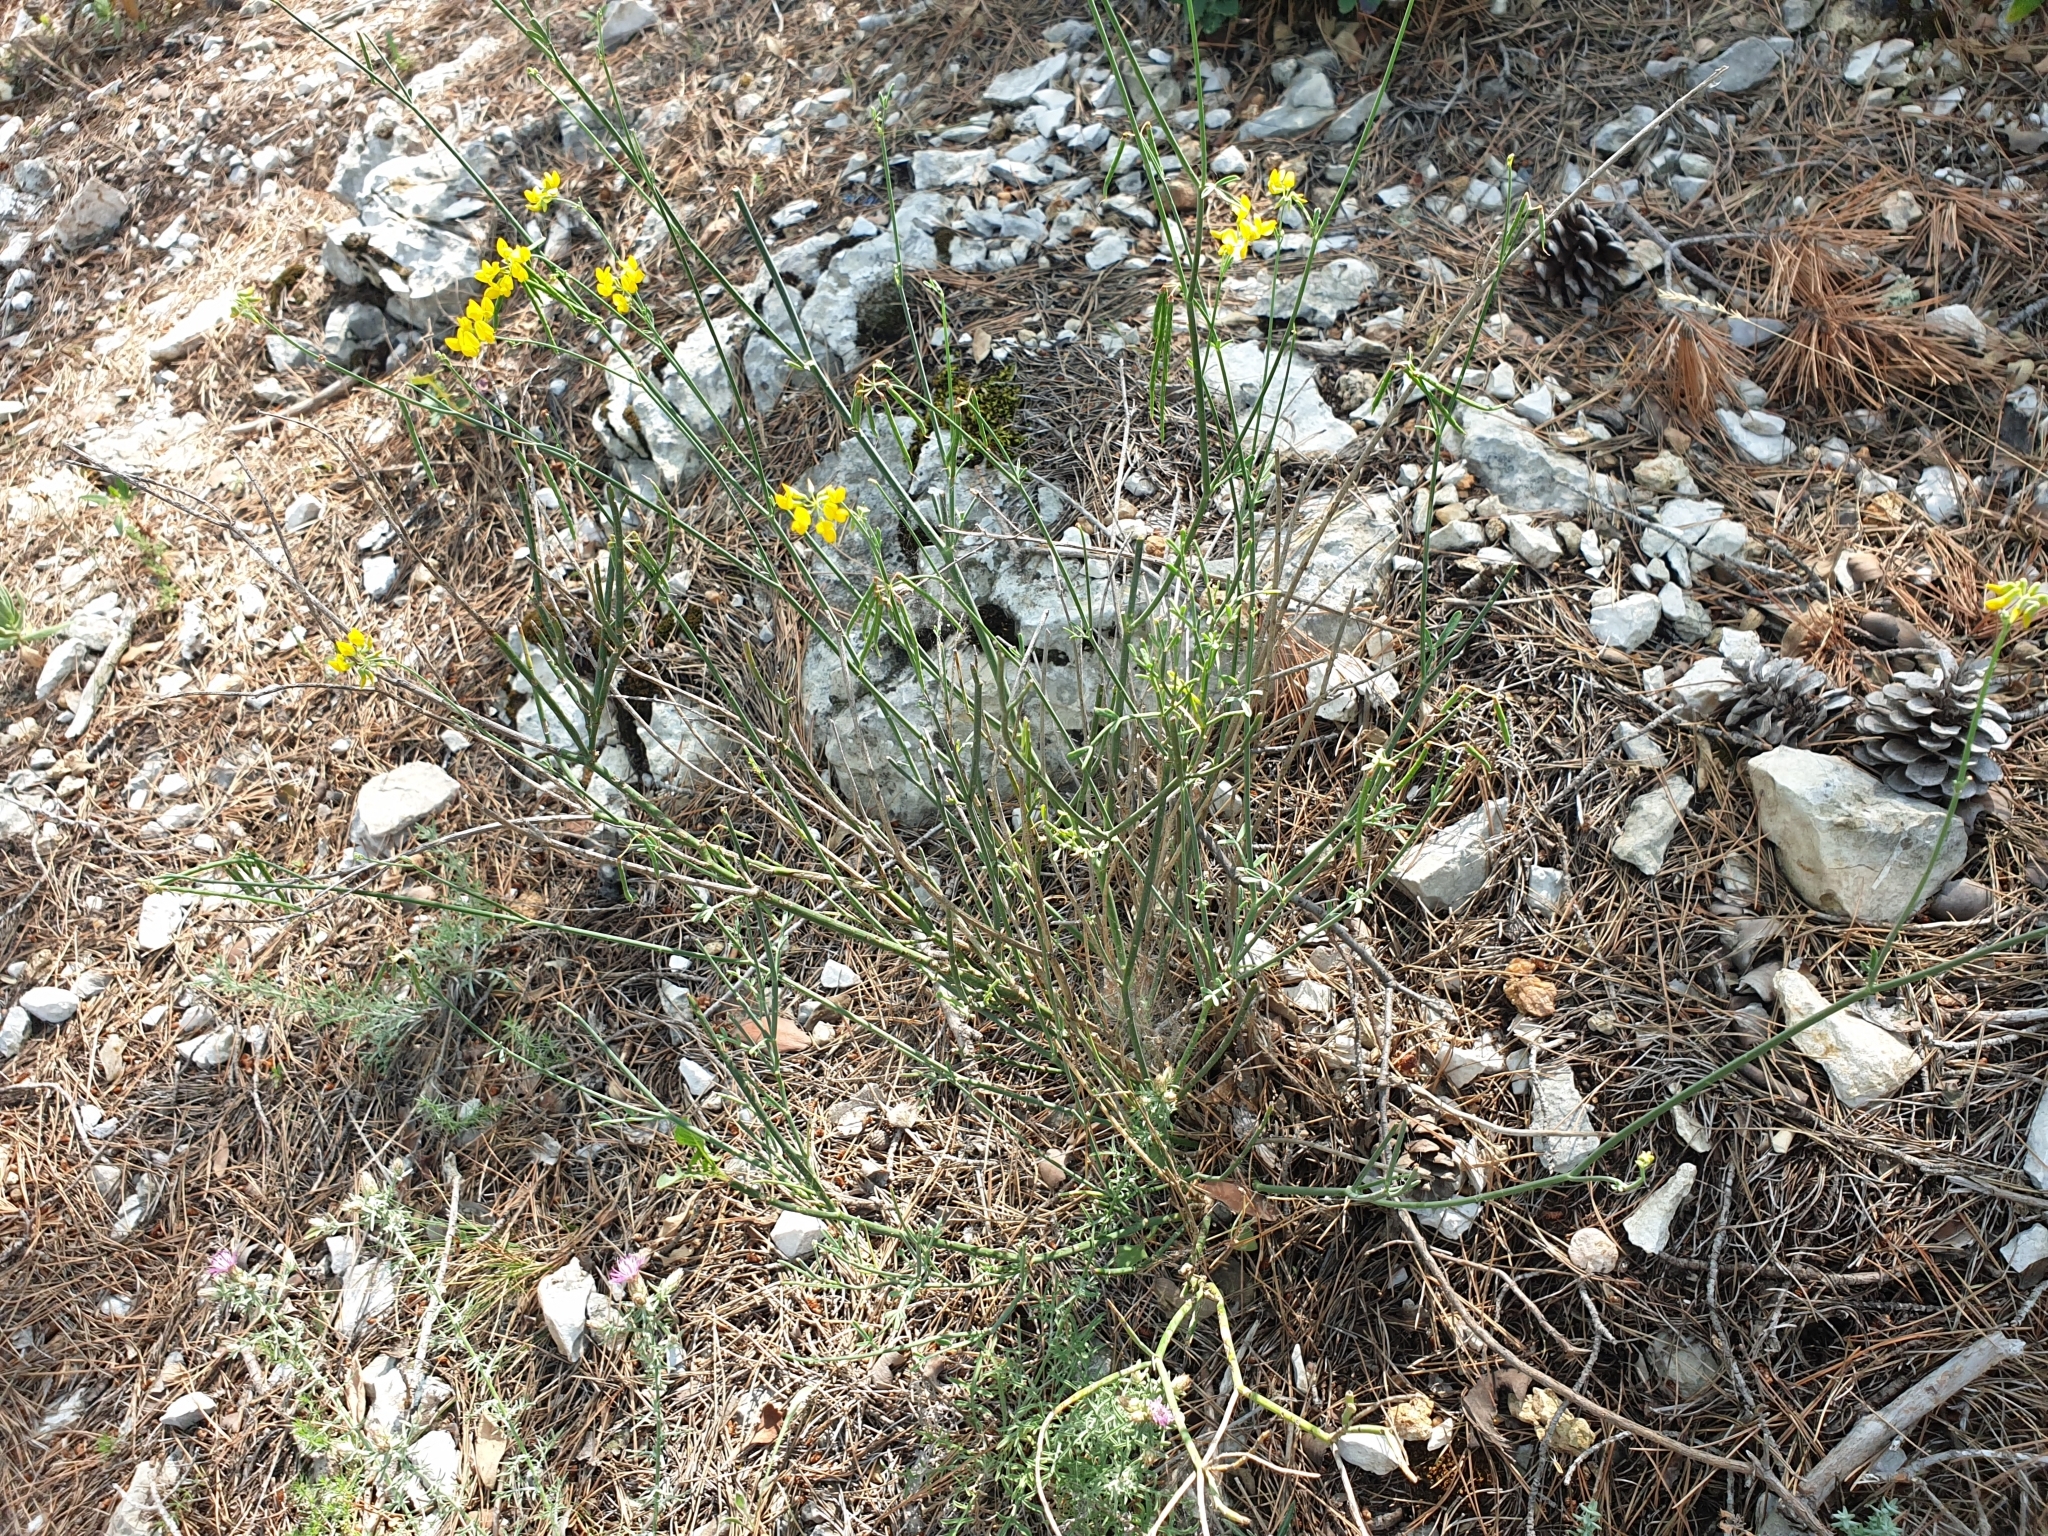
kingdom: Plantae
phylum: Tracheophyta
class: Magnoliopsida
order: Fabales
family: Fabaceae
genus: Coronilla
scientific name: Coronilla juncea
